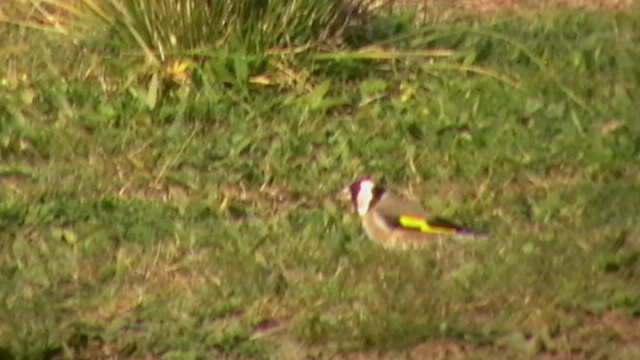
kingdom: Animalia
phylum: Chordata
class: Aves
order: Passeriformes
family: Fringillidae
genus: Carduelis
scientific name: Carduelis carduelis
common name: European goldfinch
